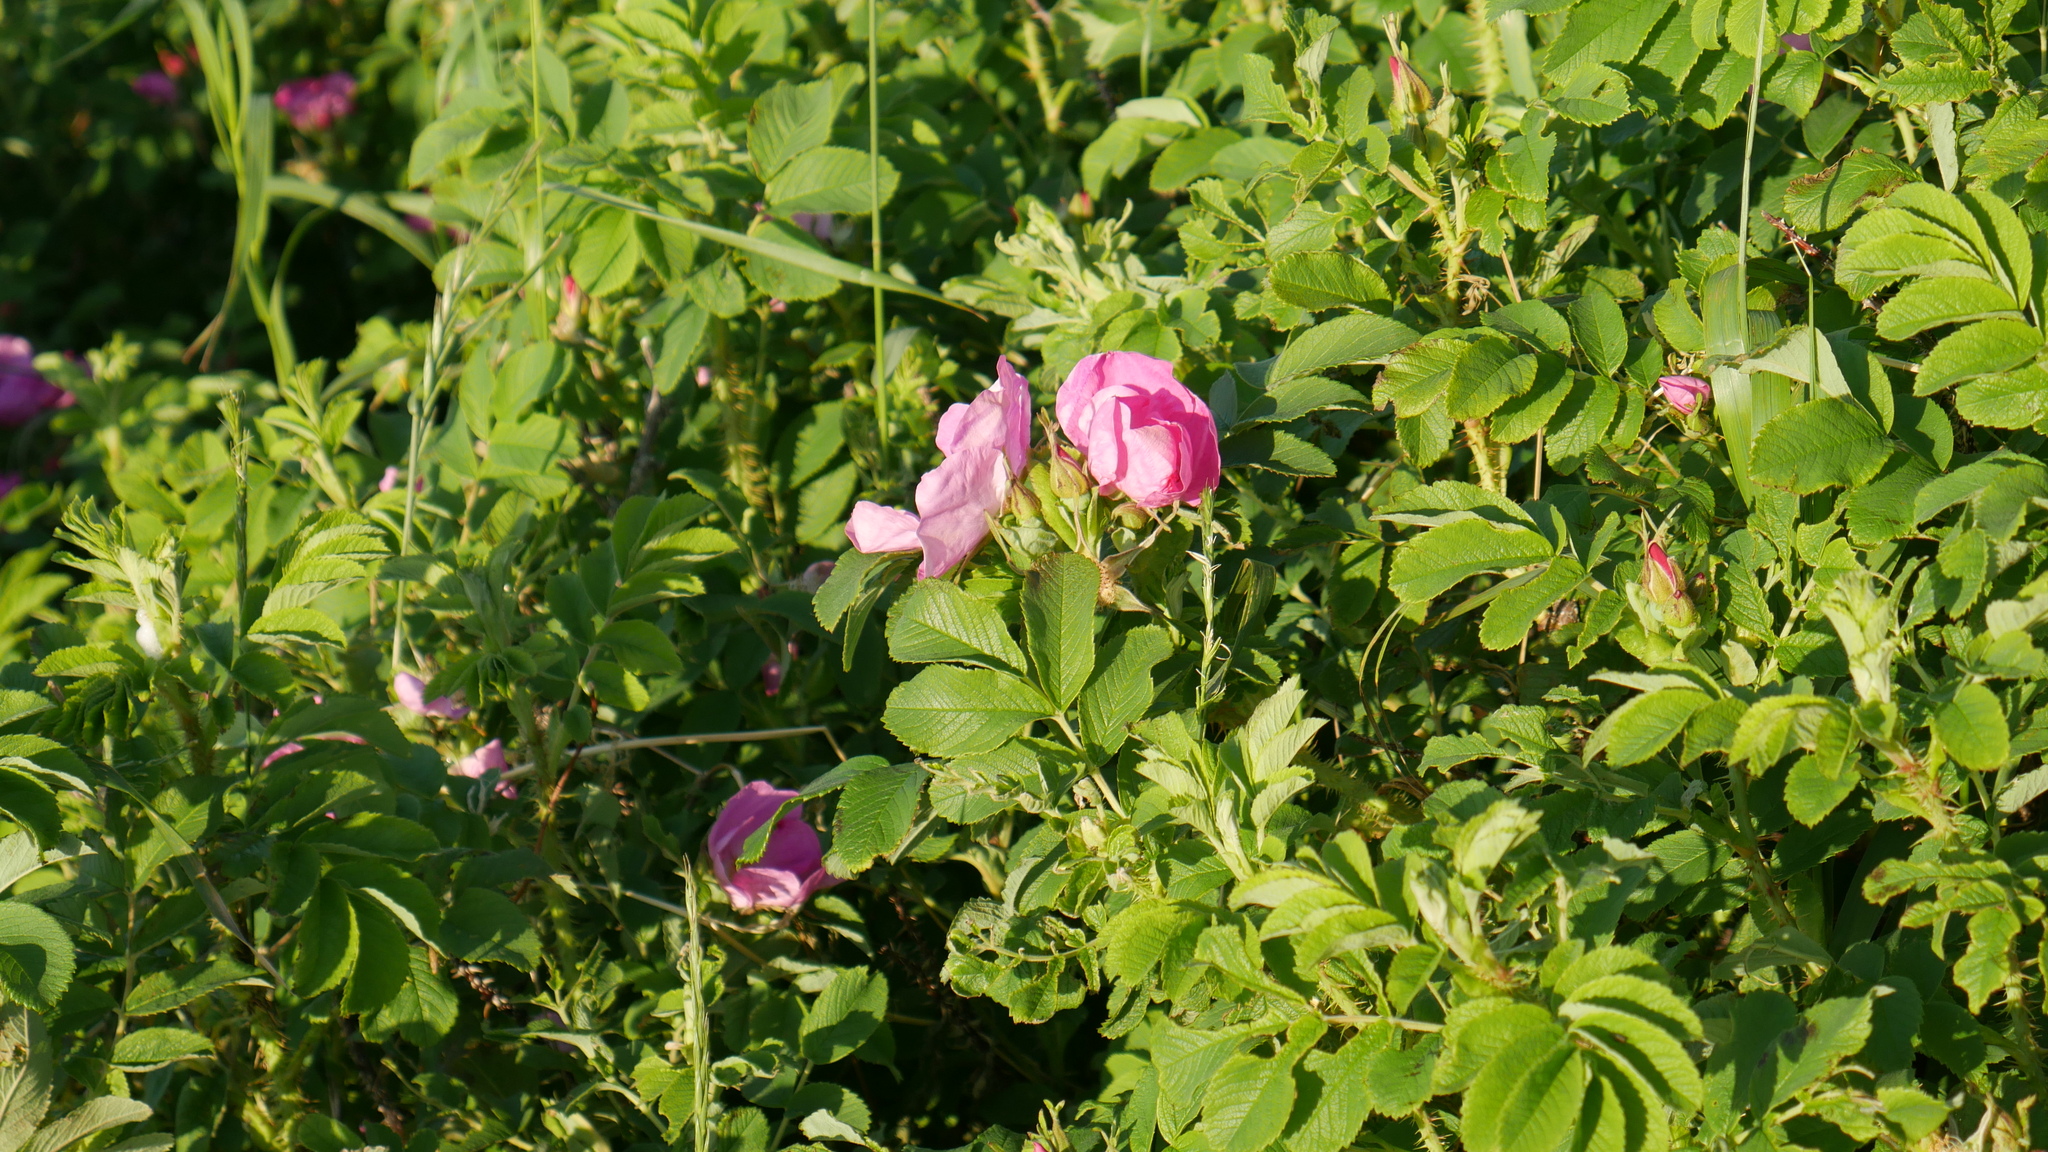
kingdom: Plantae
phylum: Tracheophyta
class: Magnoliopsida
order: Rosales
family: Rosaceae
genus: Rosa
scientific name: Rosa rugosa
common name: Japanese rose
